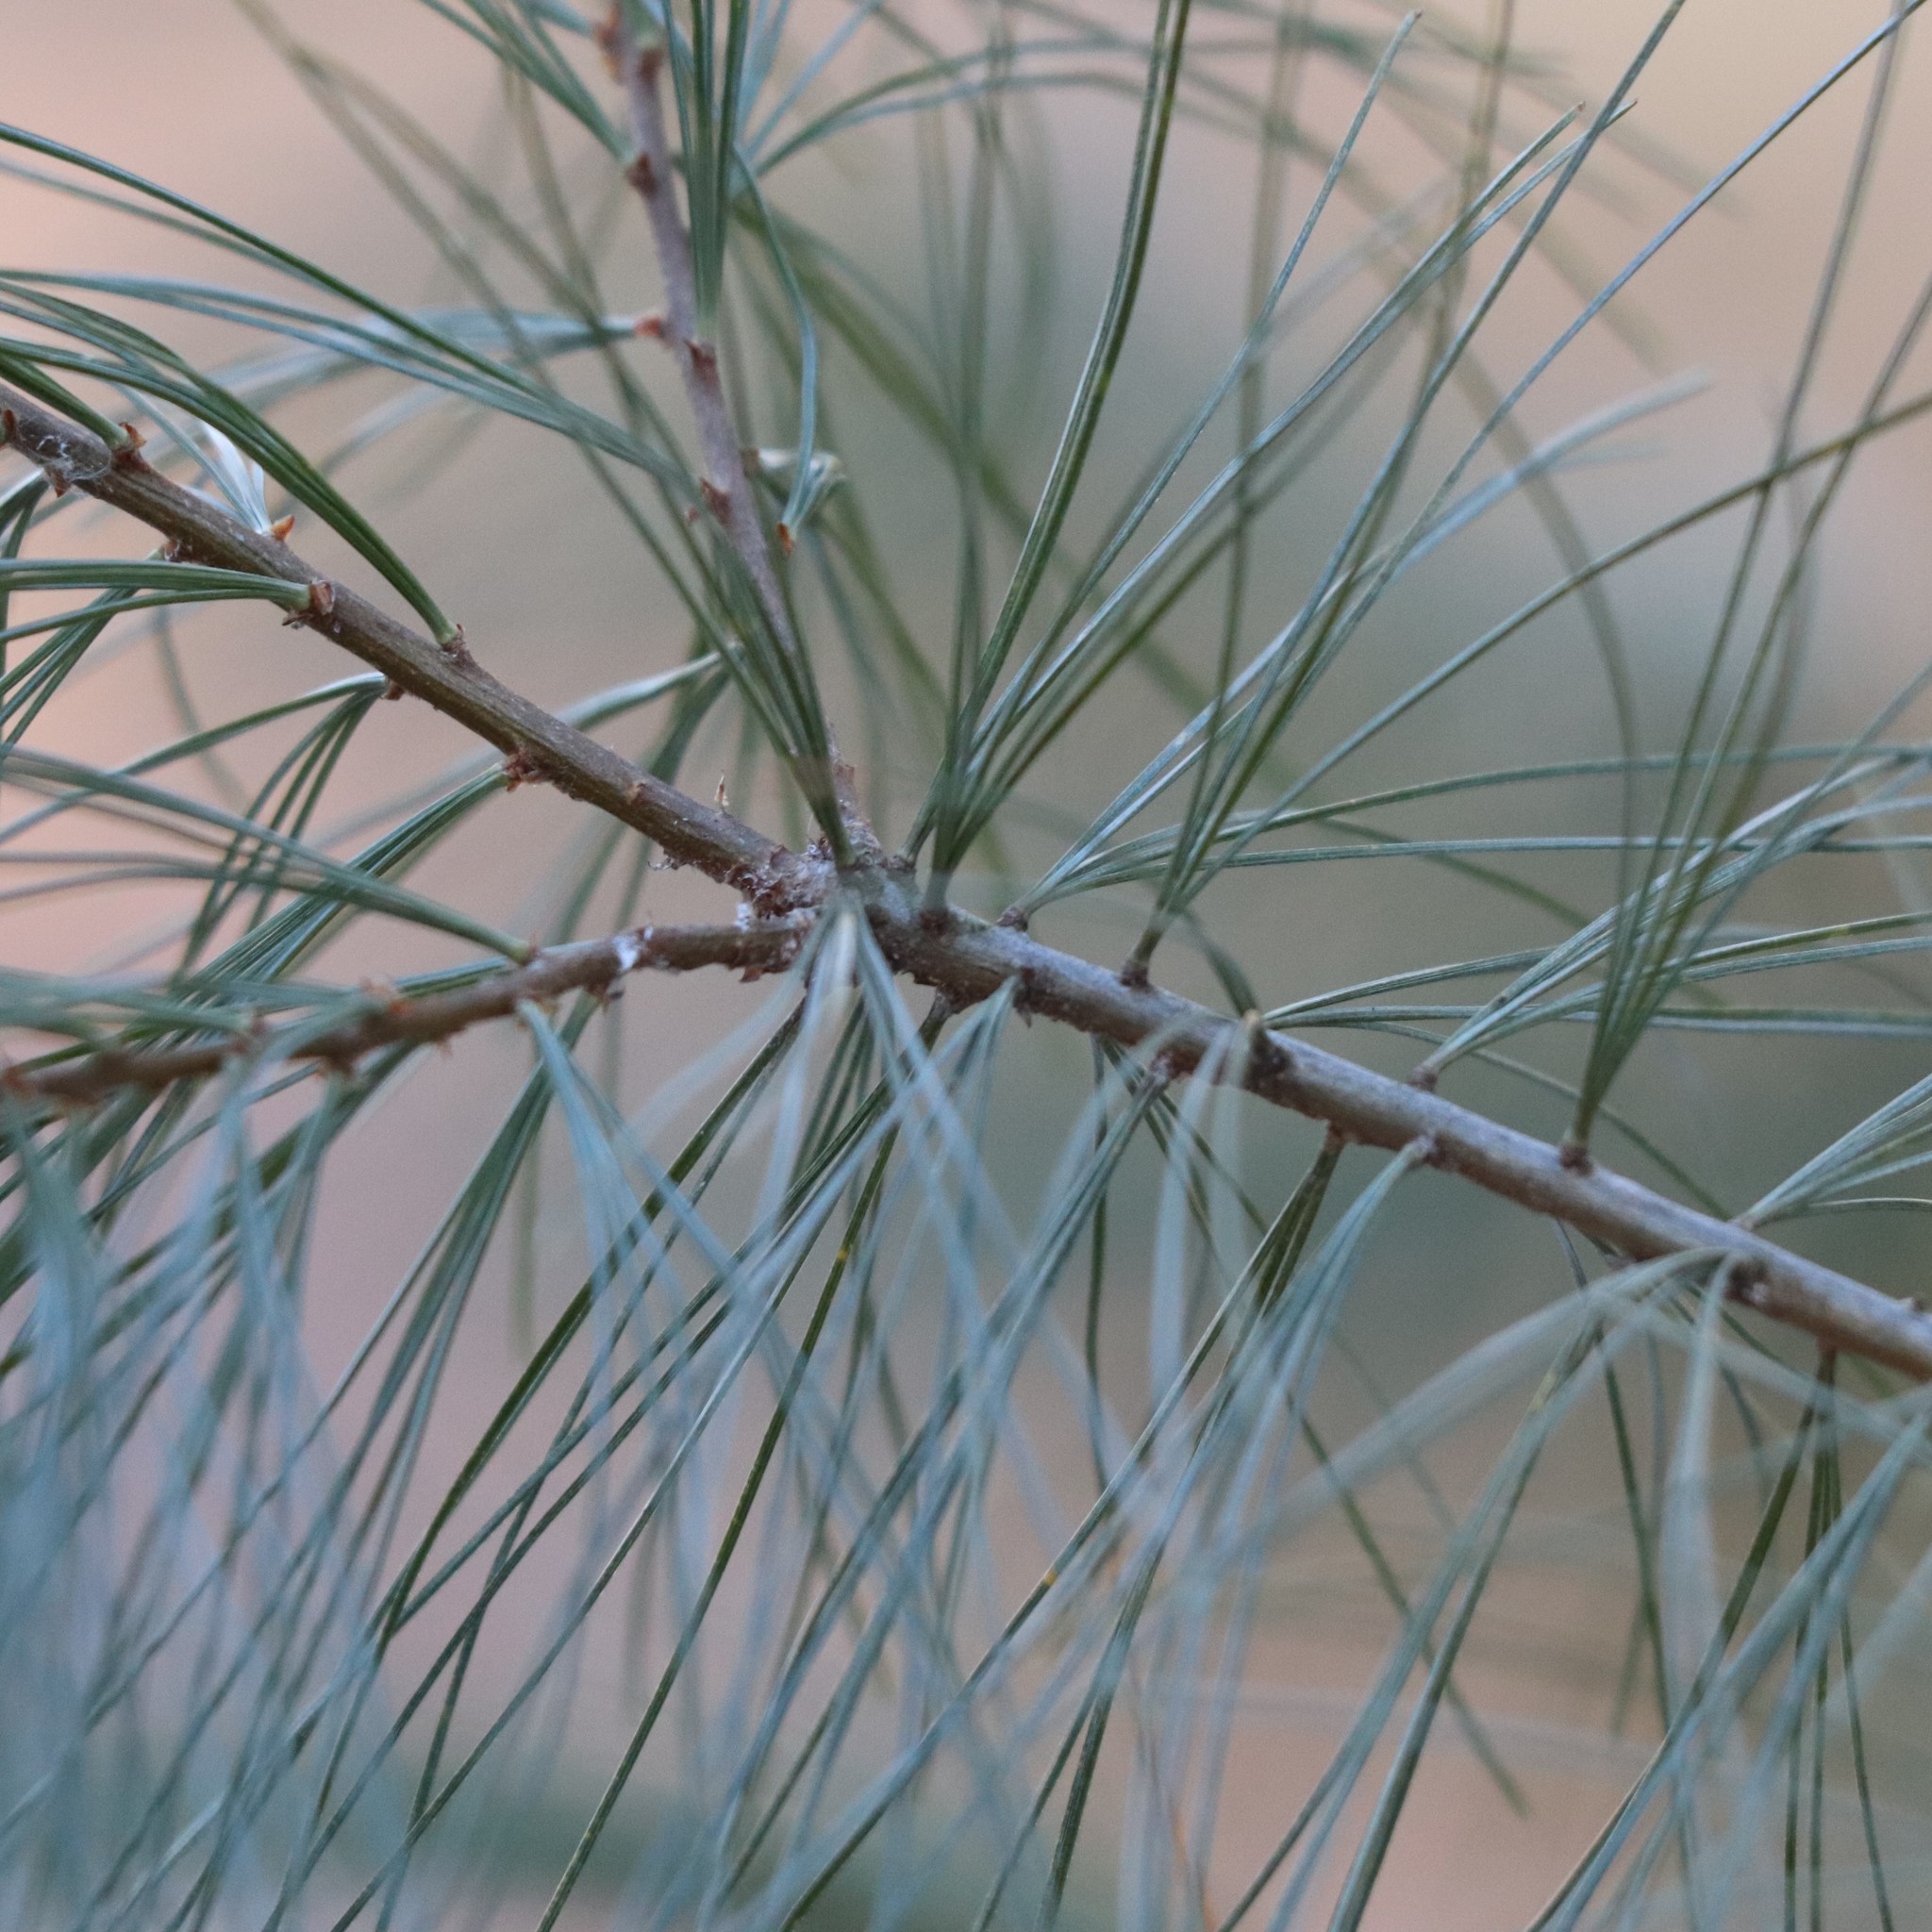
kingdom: Plantae
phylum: Tracheophyta
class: Pinopsida
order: Pinales
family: Pinaceae
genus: Pinus
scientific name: Pinus strobus
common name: Weymouth pine
